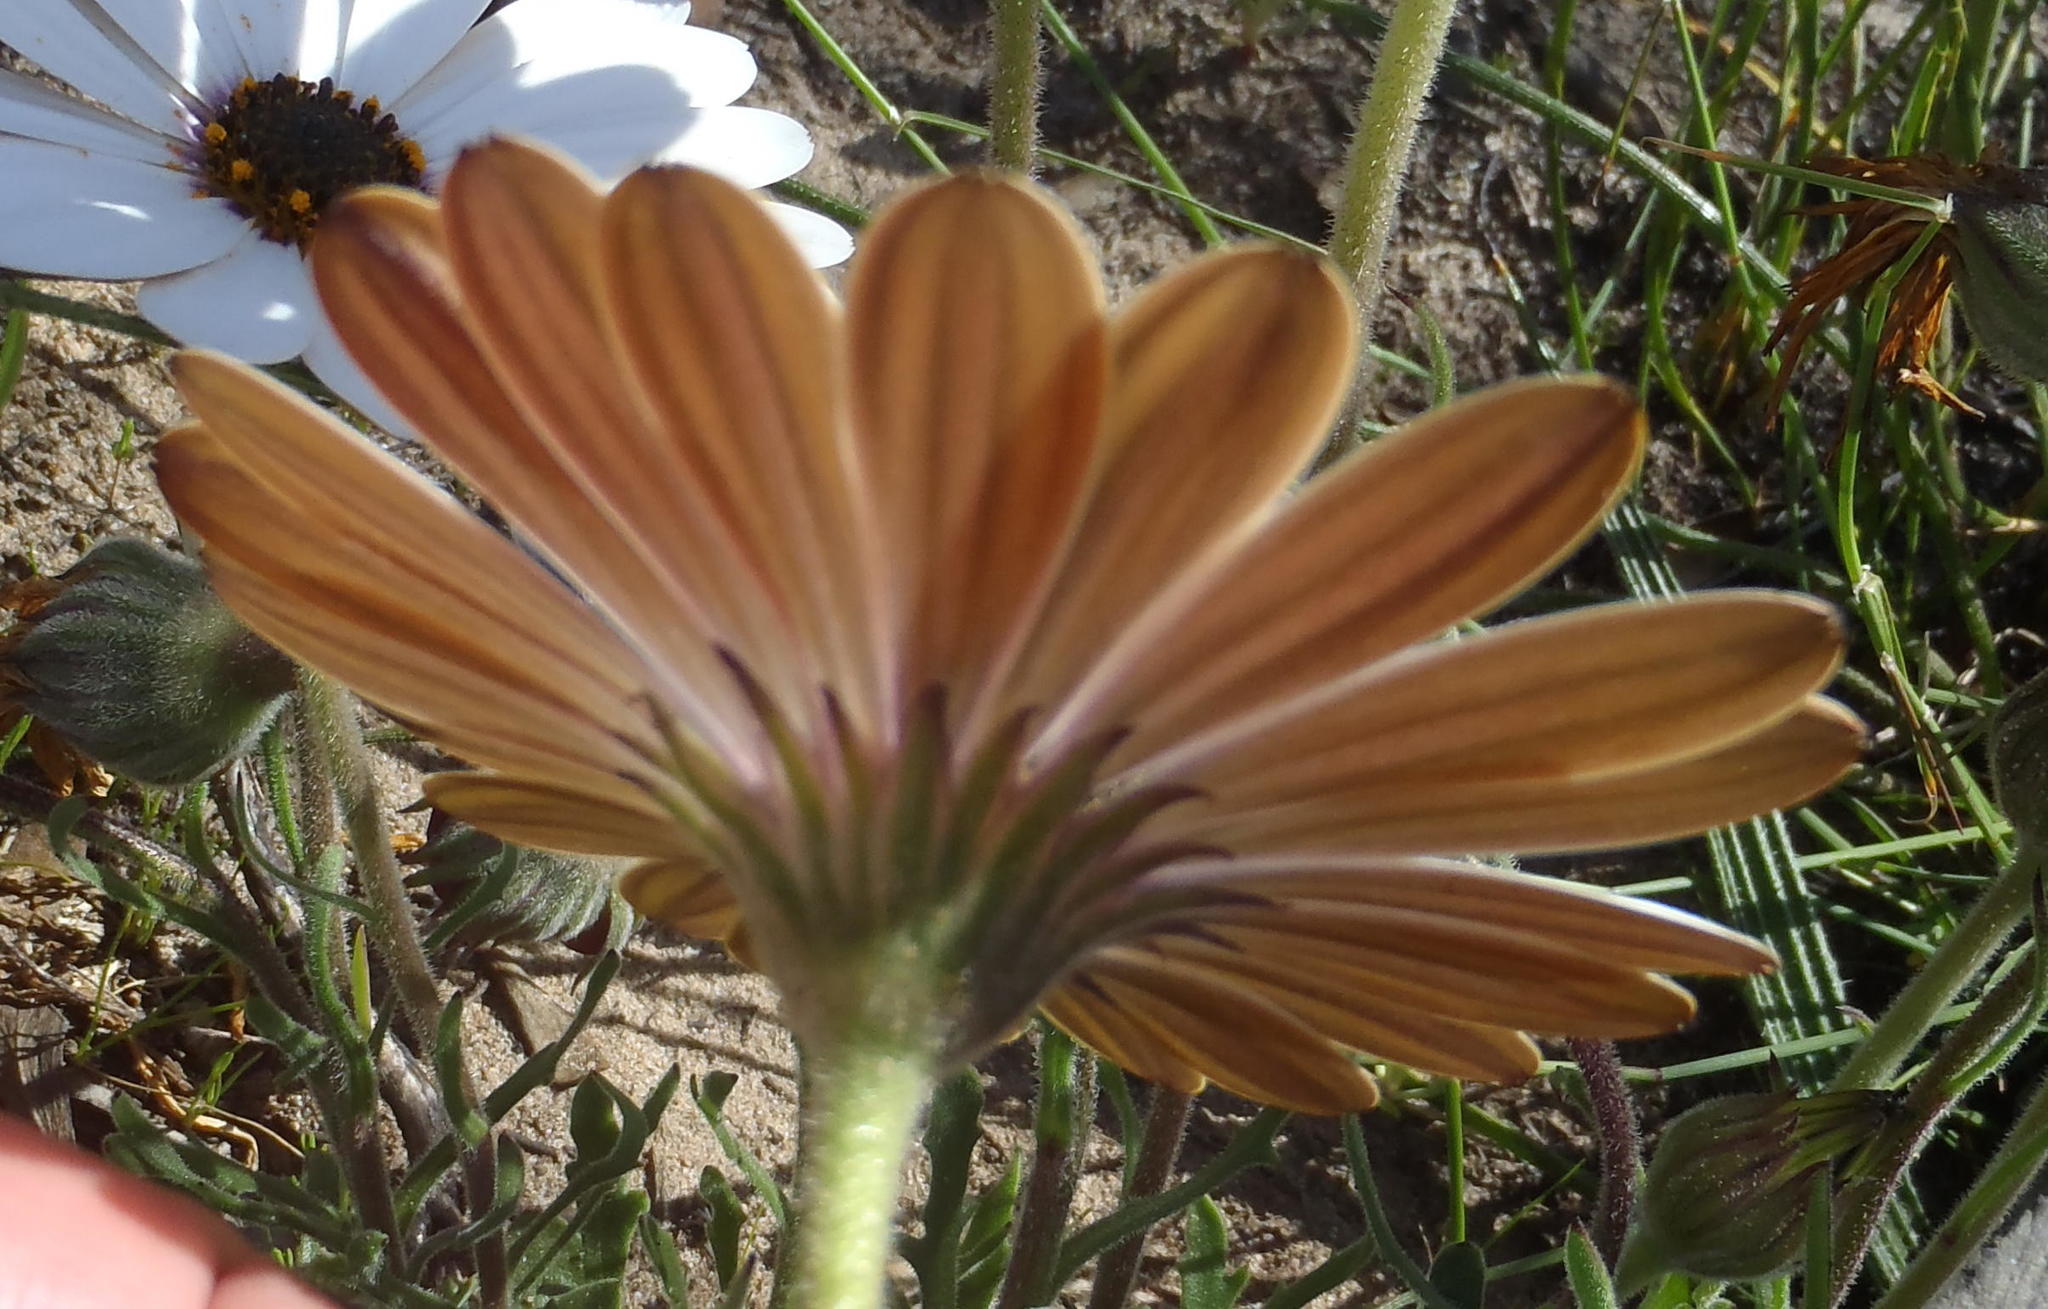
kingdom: Plantae
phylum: Tracheophyta
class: Magnoliopsida
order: Asterales
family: Asteraceae
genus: Dimorphotheca
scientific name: Dimorphotheca nudicaulis
